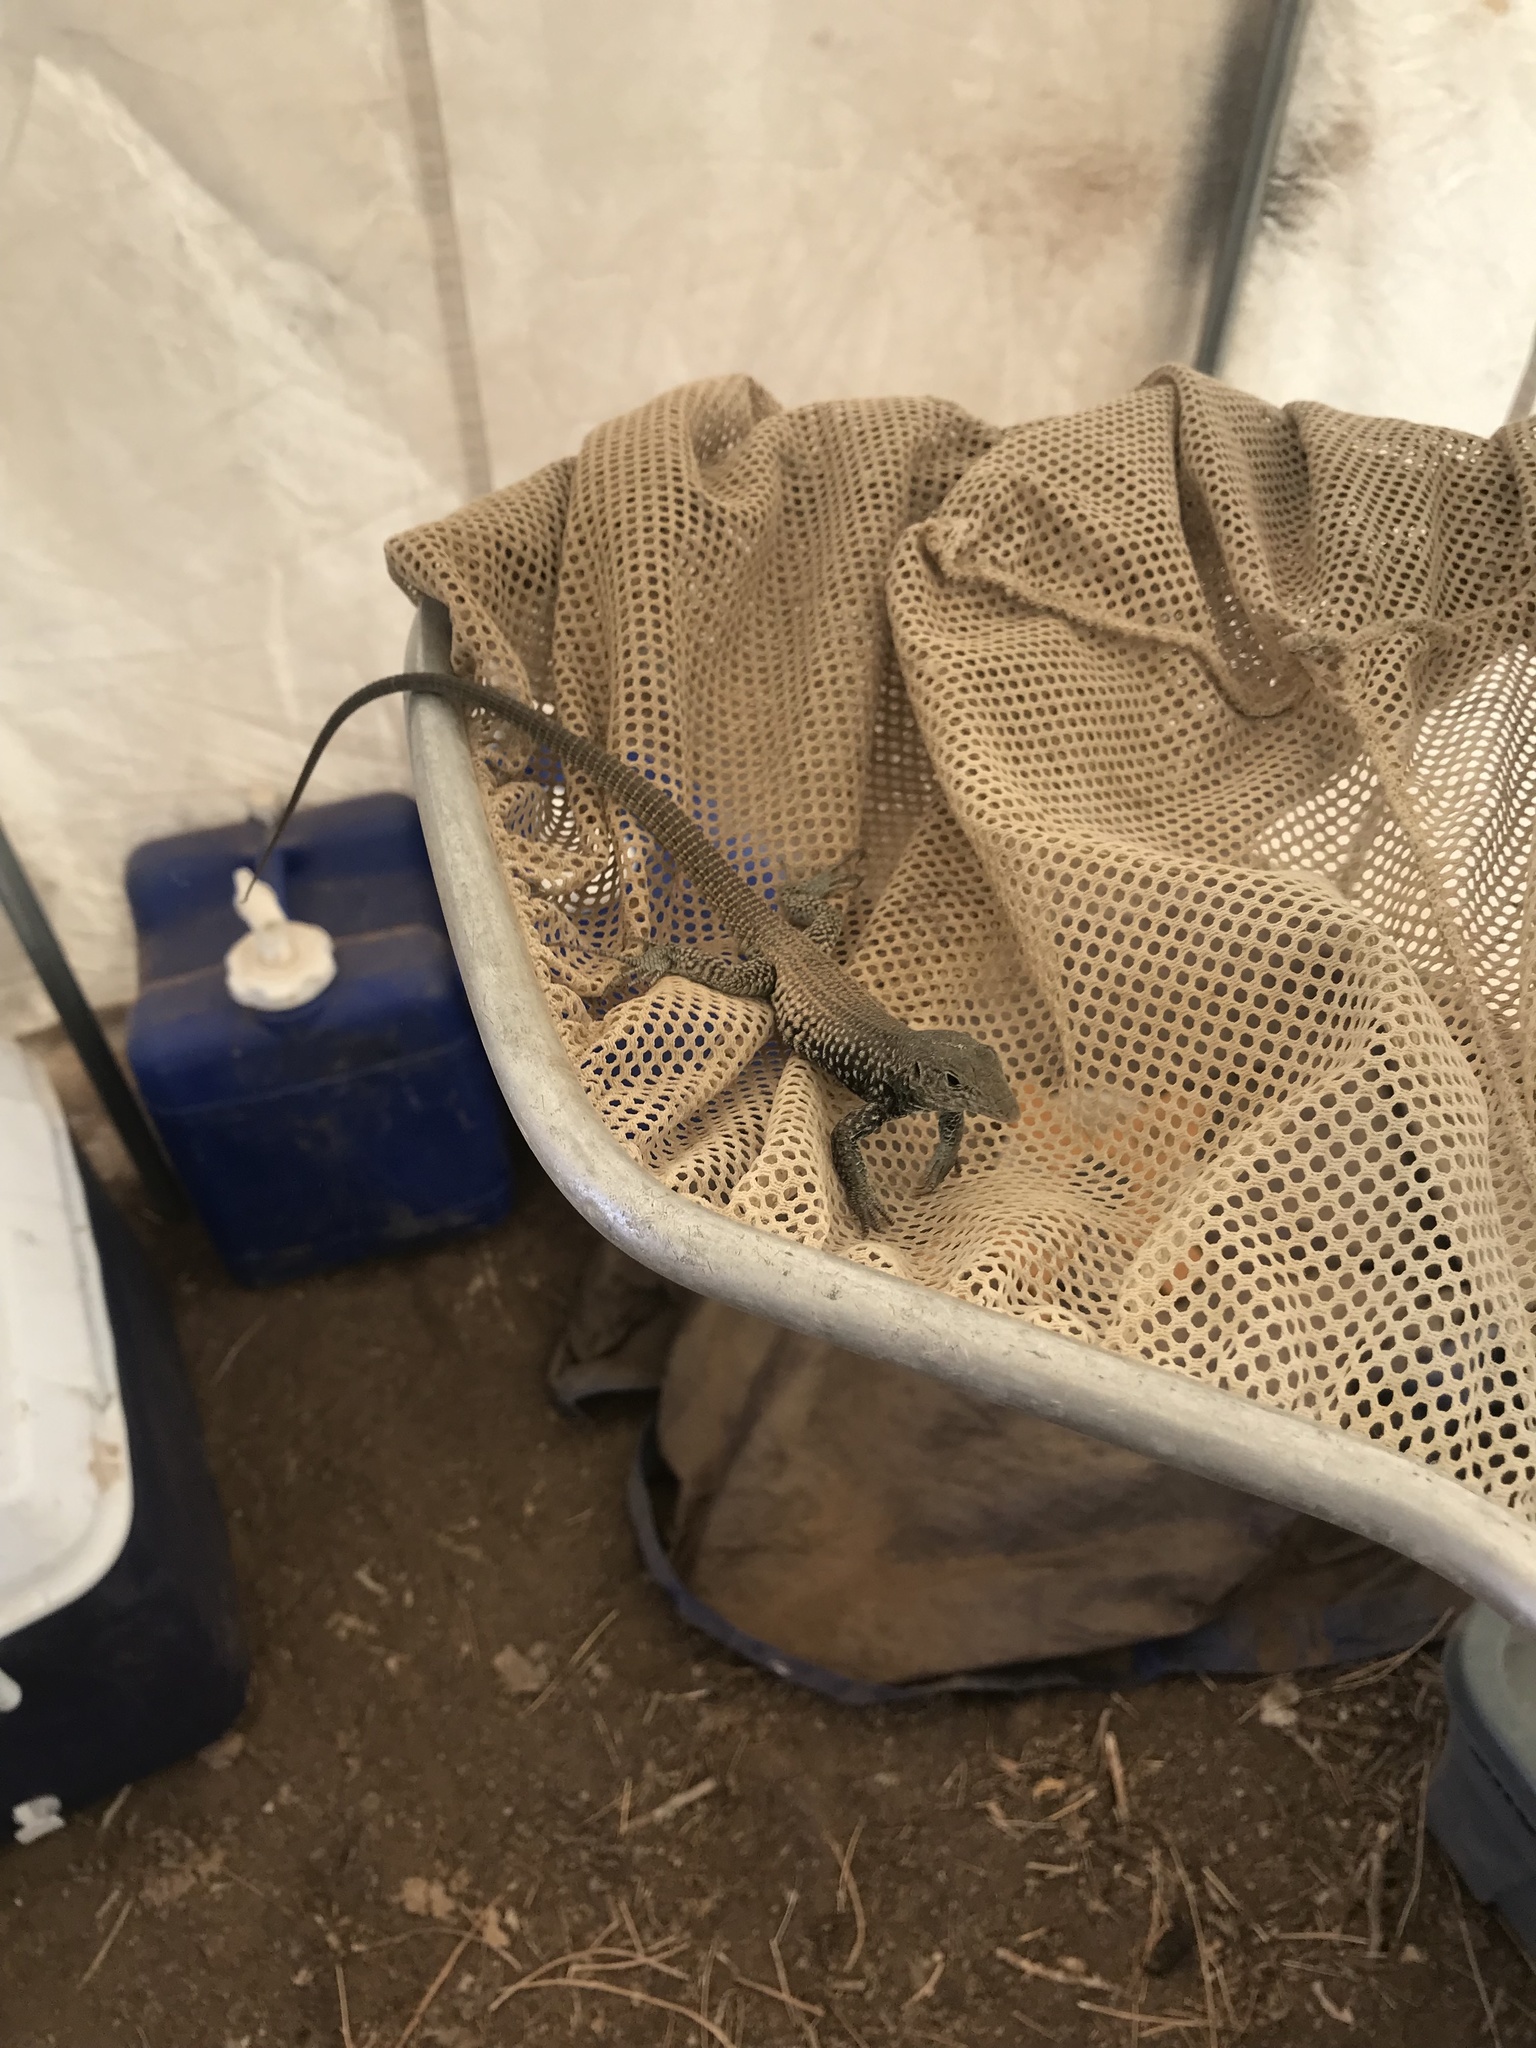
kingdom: Animalia
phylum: Chordata
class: Squamata
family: Teiidae
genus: Aspidoscelis
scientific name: Aspidoscelis tigris
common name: Tiger whiptail
